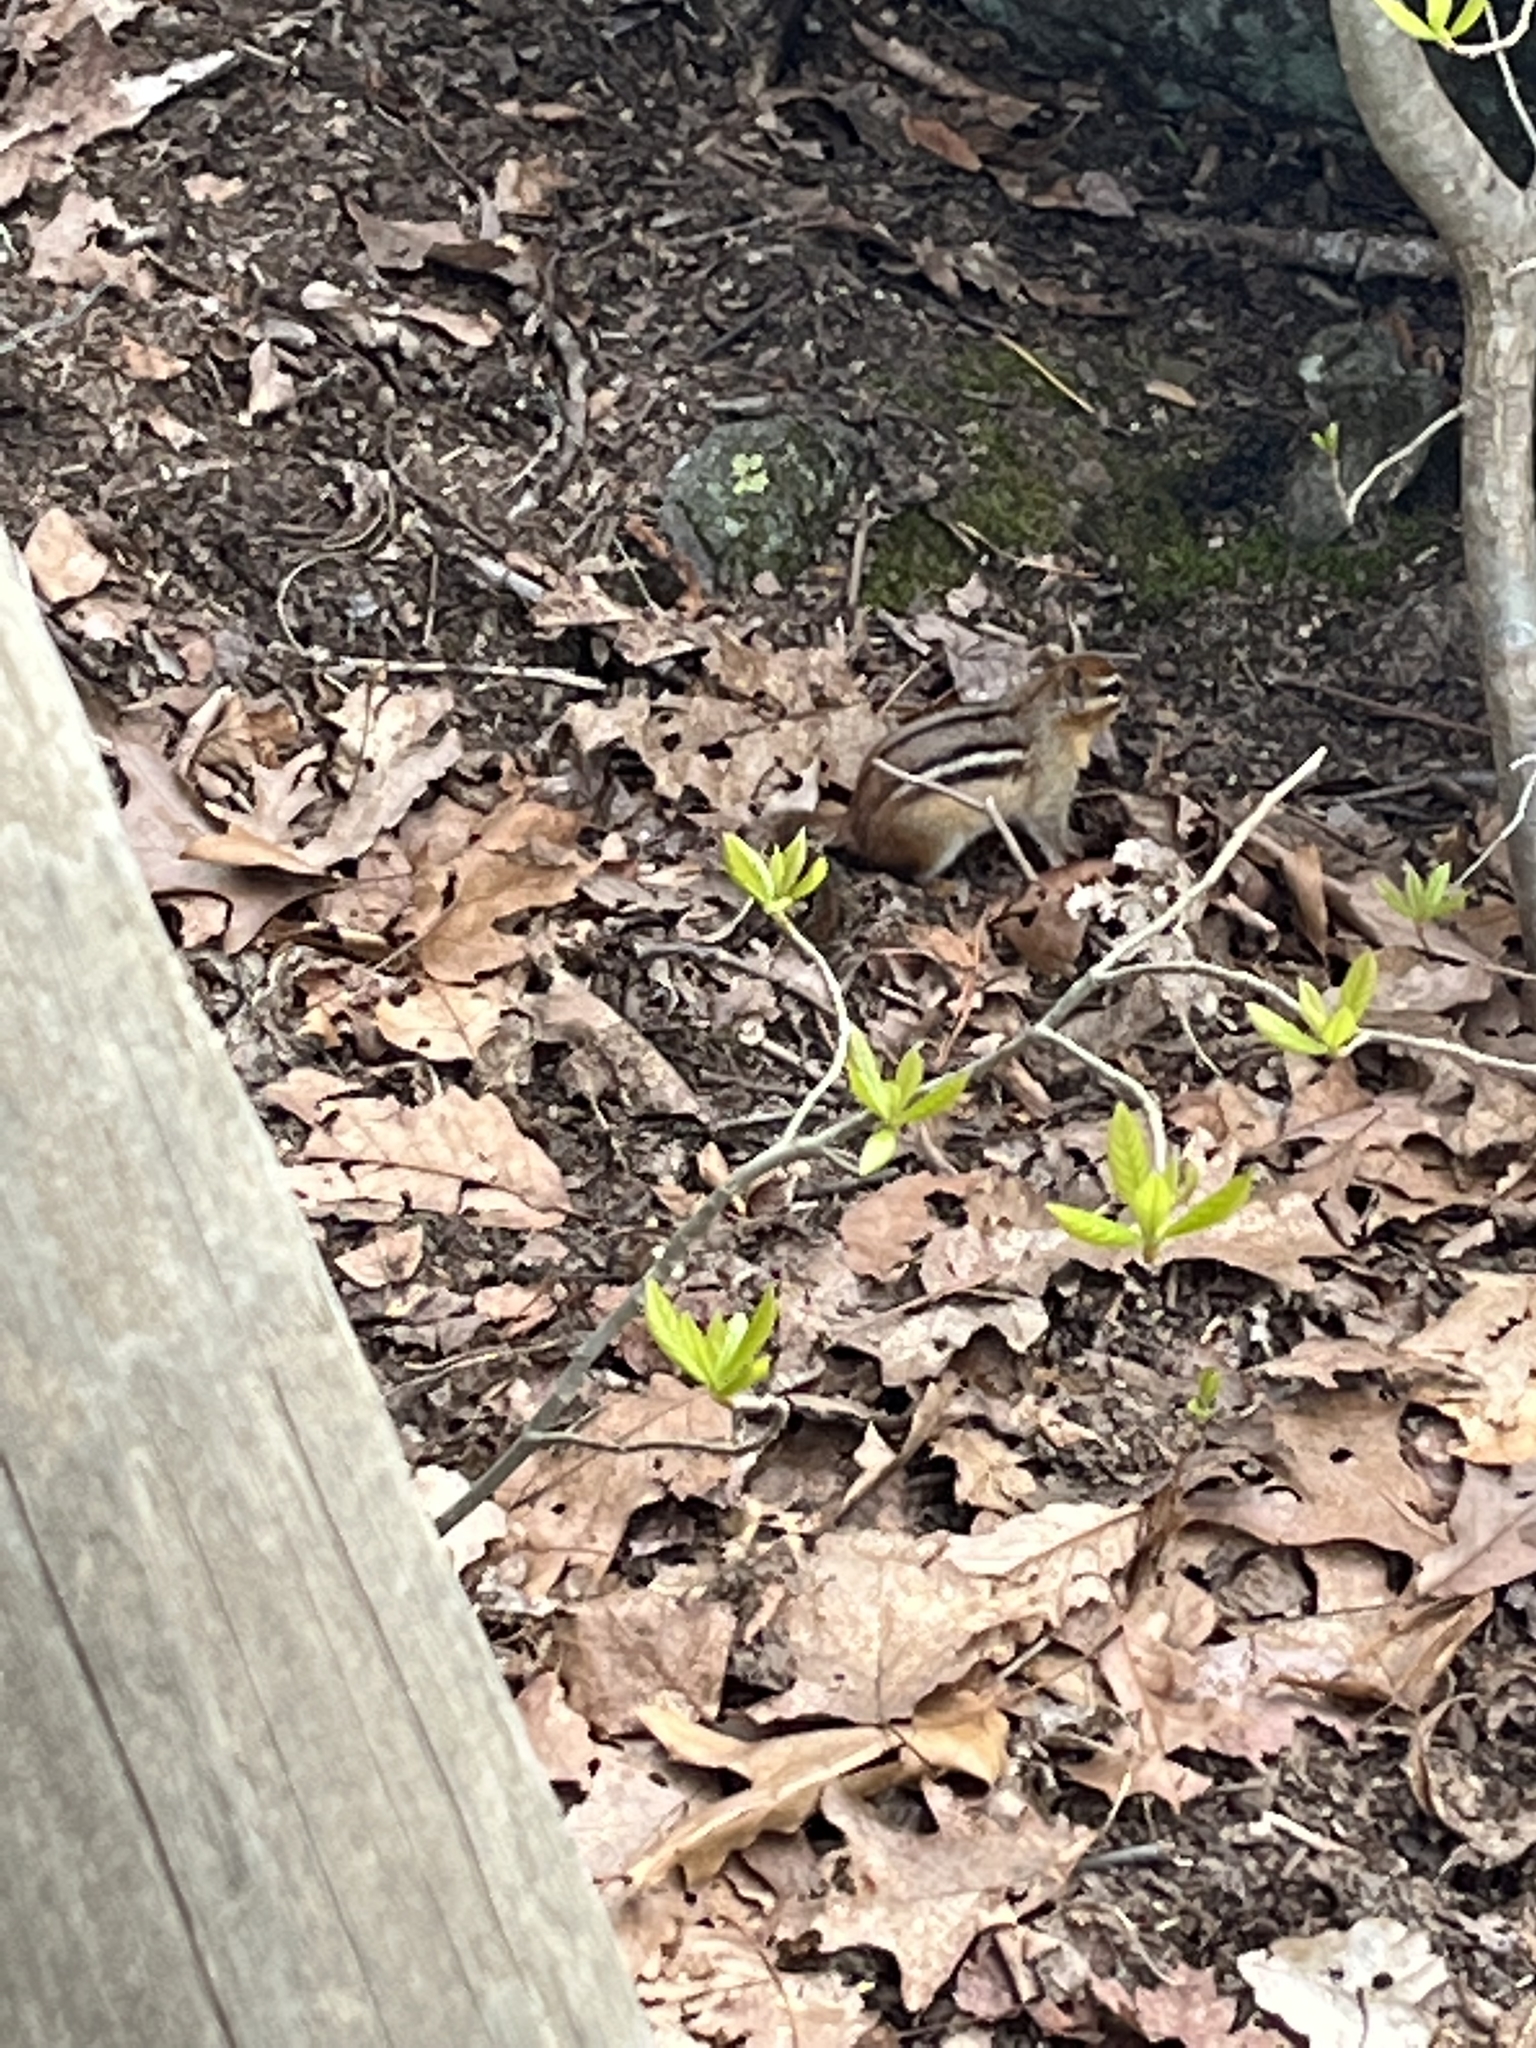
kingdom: Animalia
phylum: Chordata
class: Mammalia
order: Rodentia
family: Sciuridae
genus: Tamias
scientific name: Tamias striatus
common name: Eastern chipmunk
